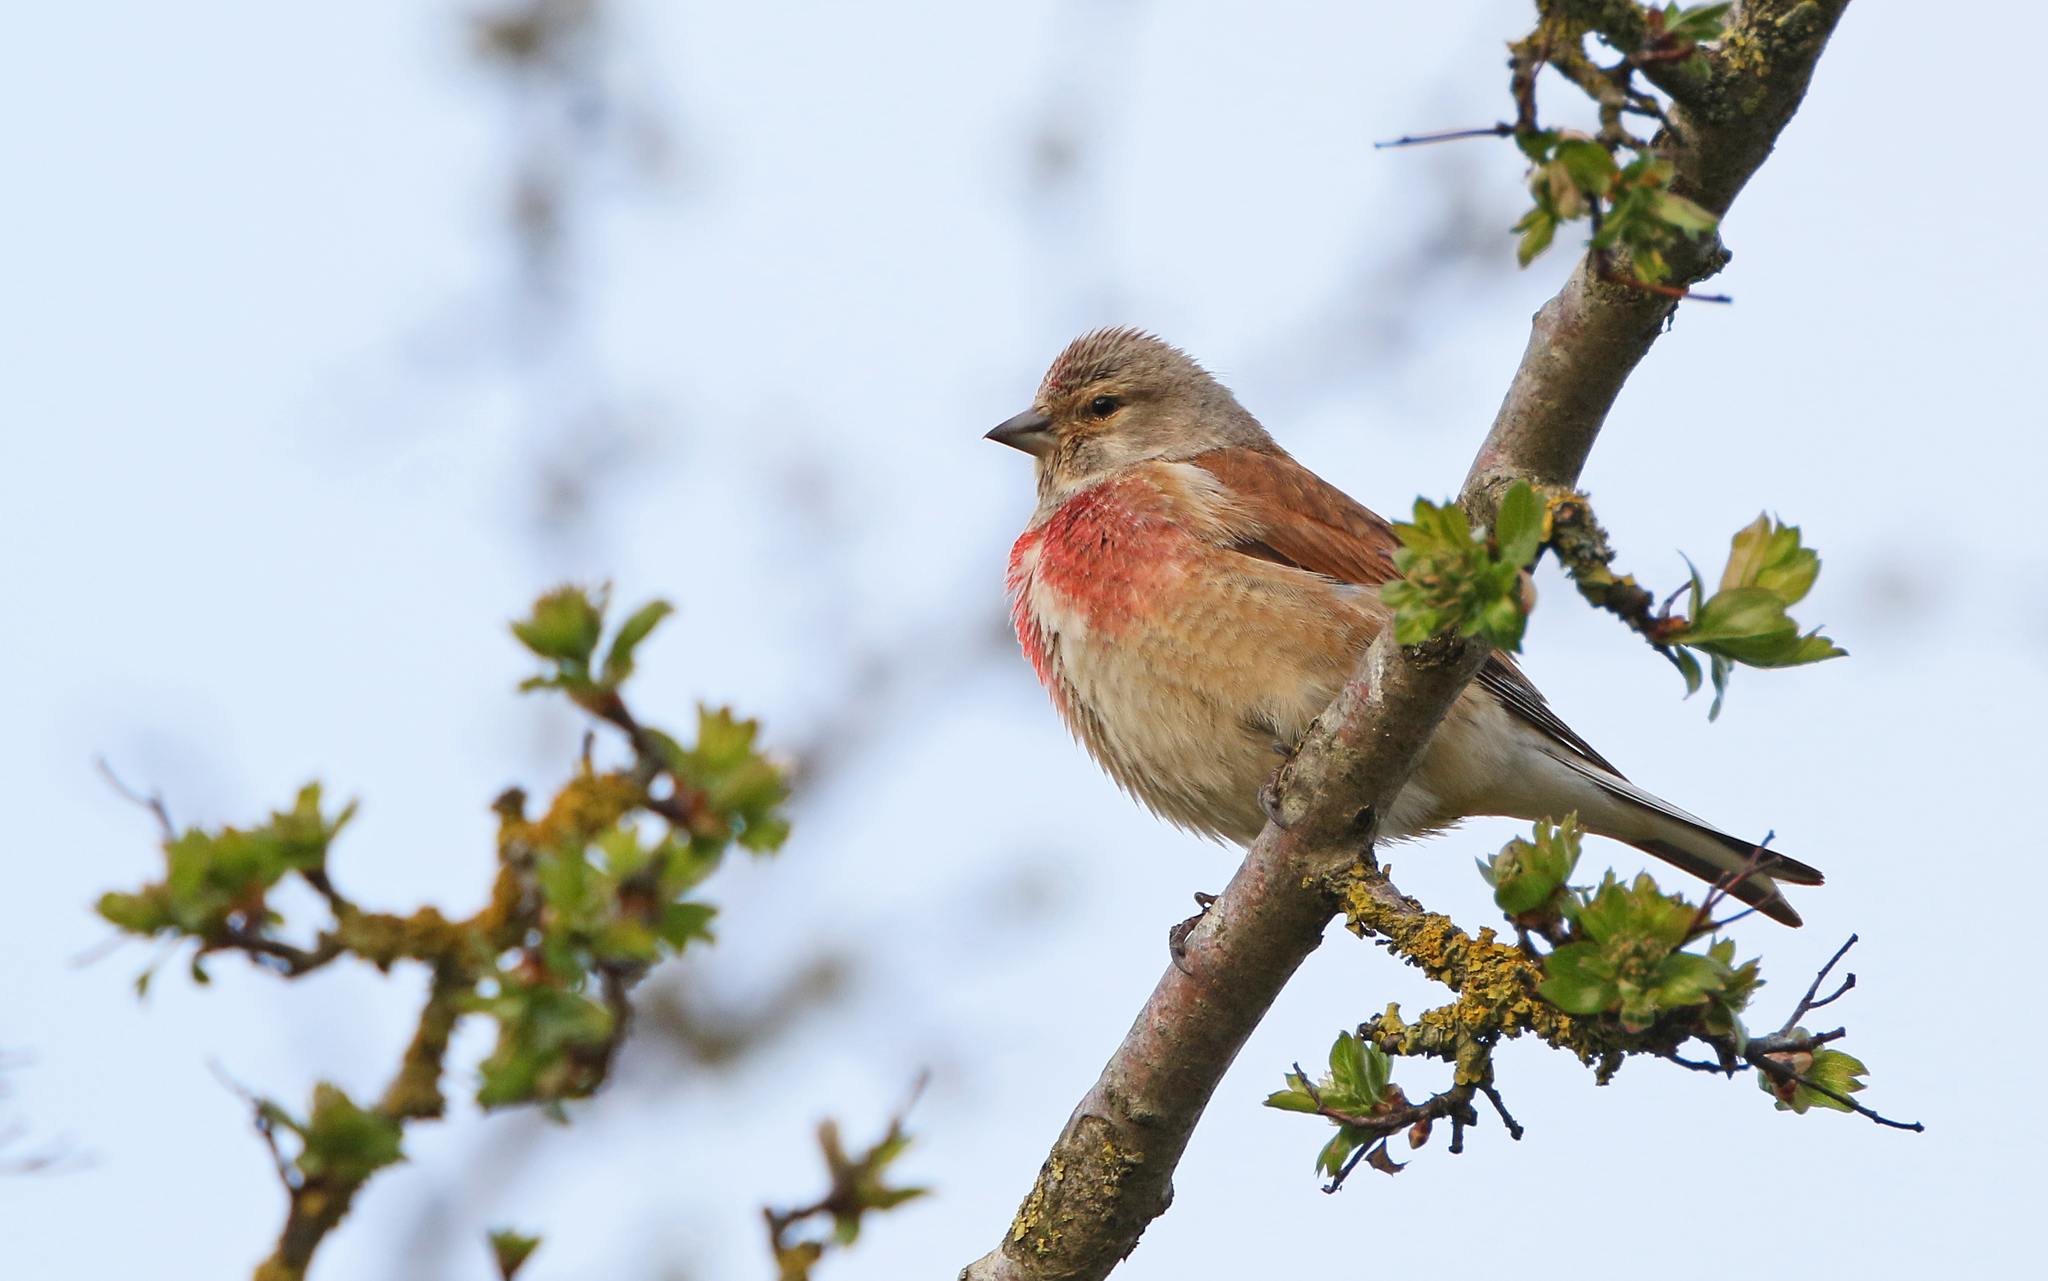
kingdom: Animalia
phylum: Chordata
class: Aves
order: Passeriformes
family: Fringillidae
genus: Linaria
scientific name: Linaria cannabina
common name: Common linnet
